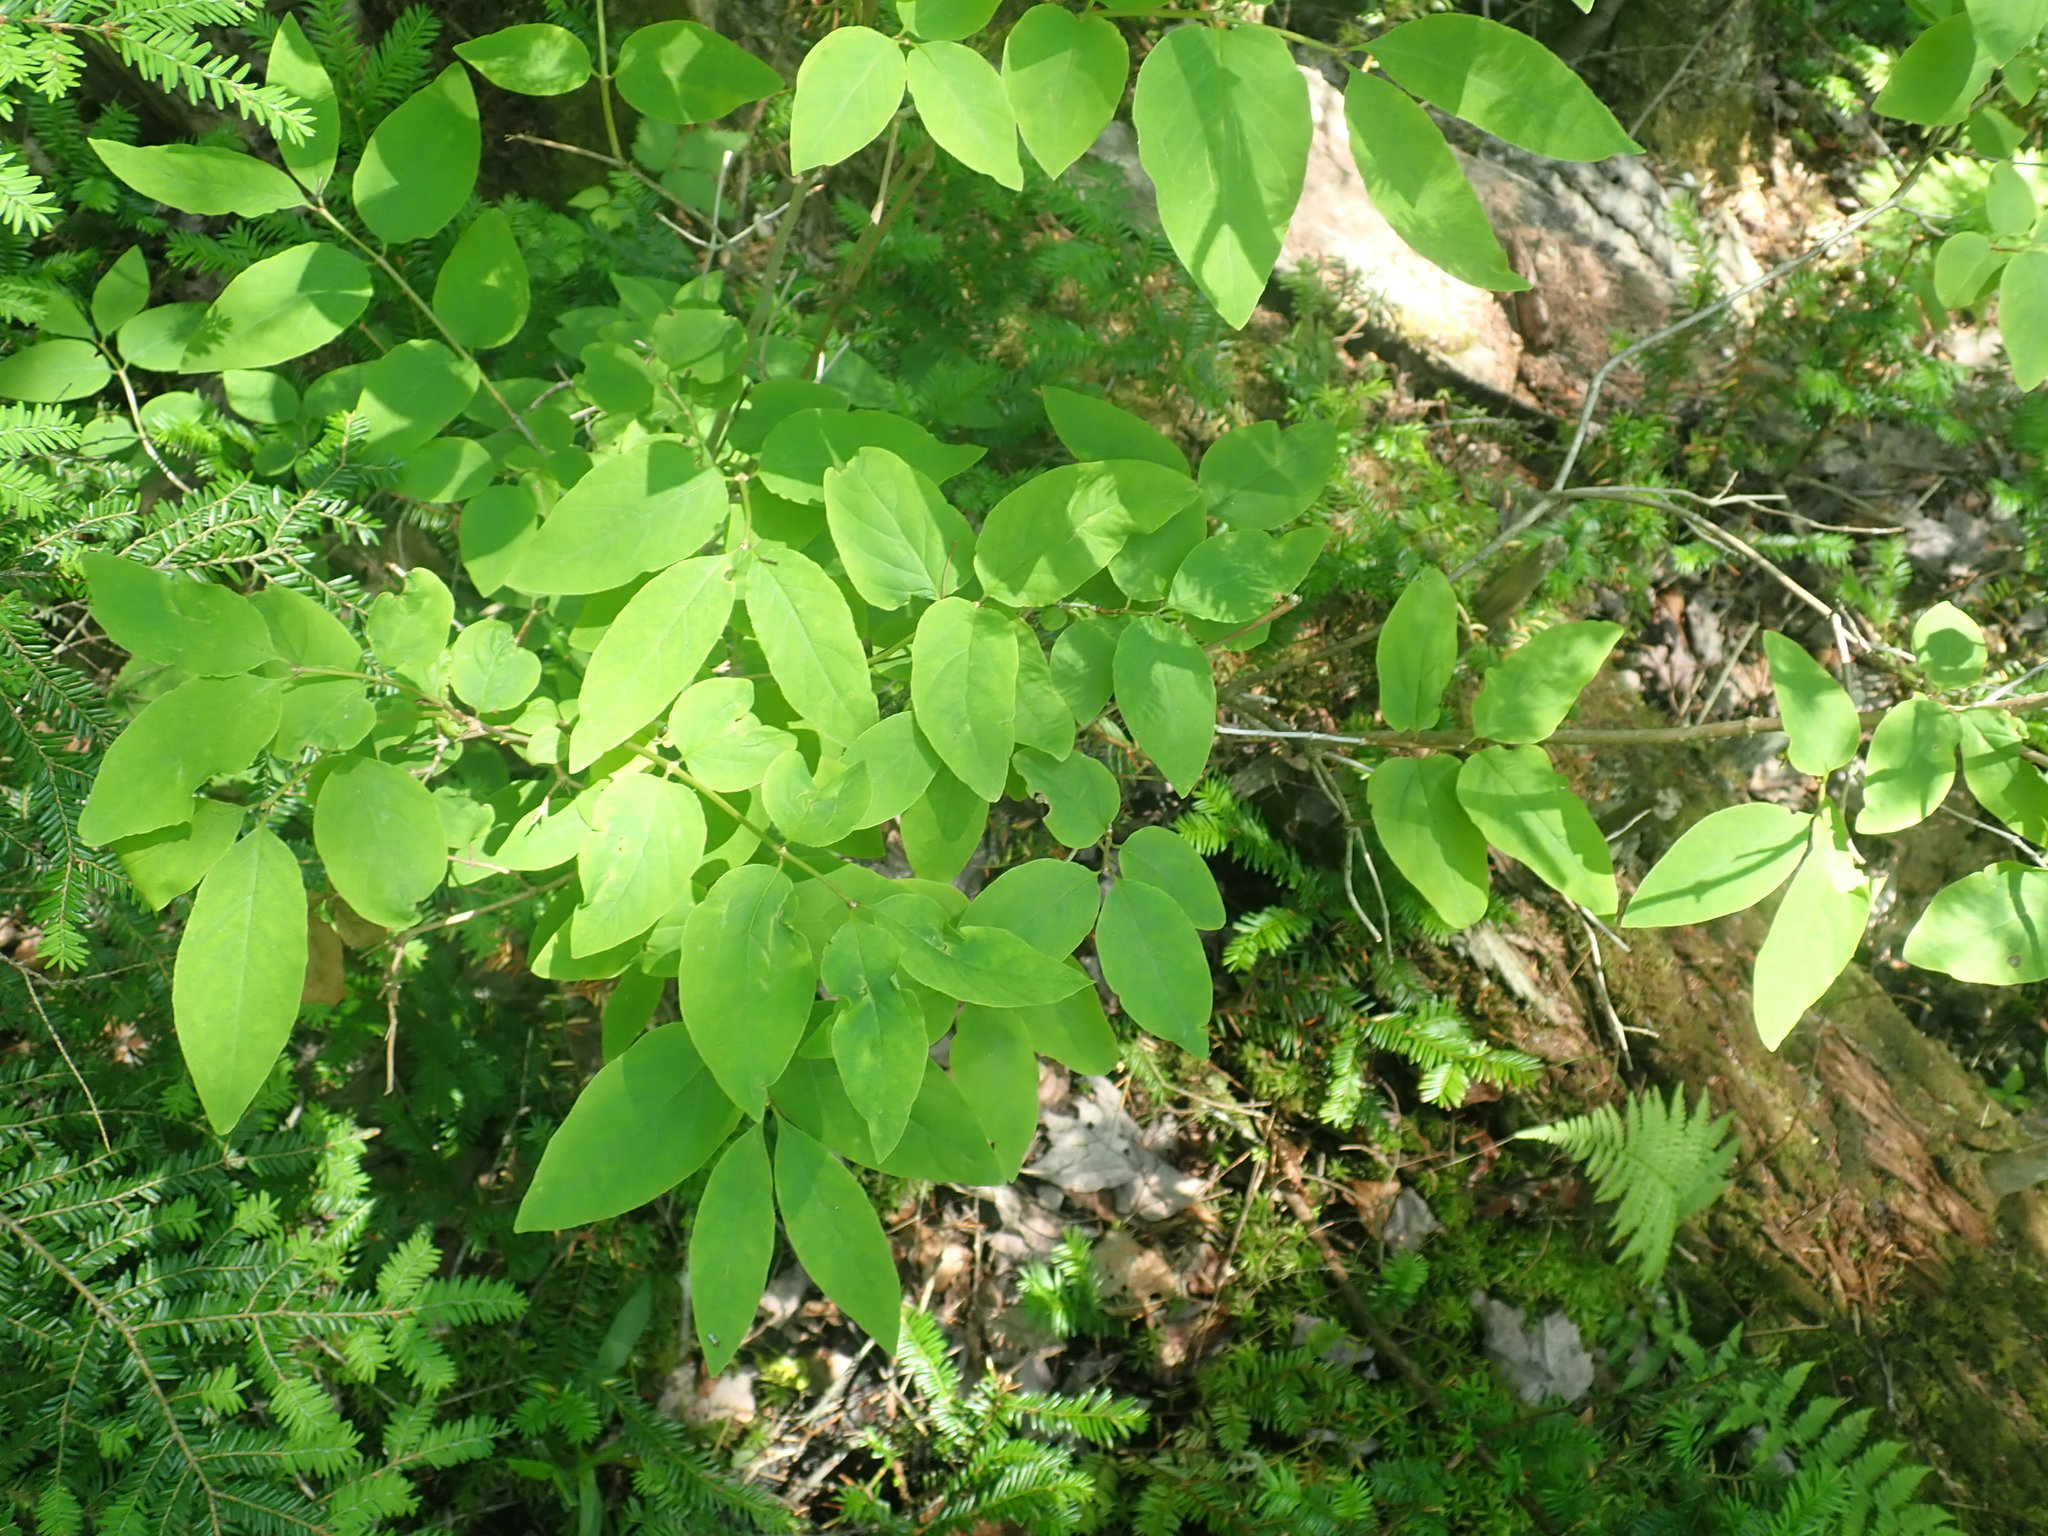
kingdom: Plantae
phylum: Tracheophyta
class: Magnoliopsida
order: Dipsacales
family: Caprifoliaceae
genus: Lonicera
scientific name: Lonicera canadensis
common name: American fly-honeysuckle
